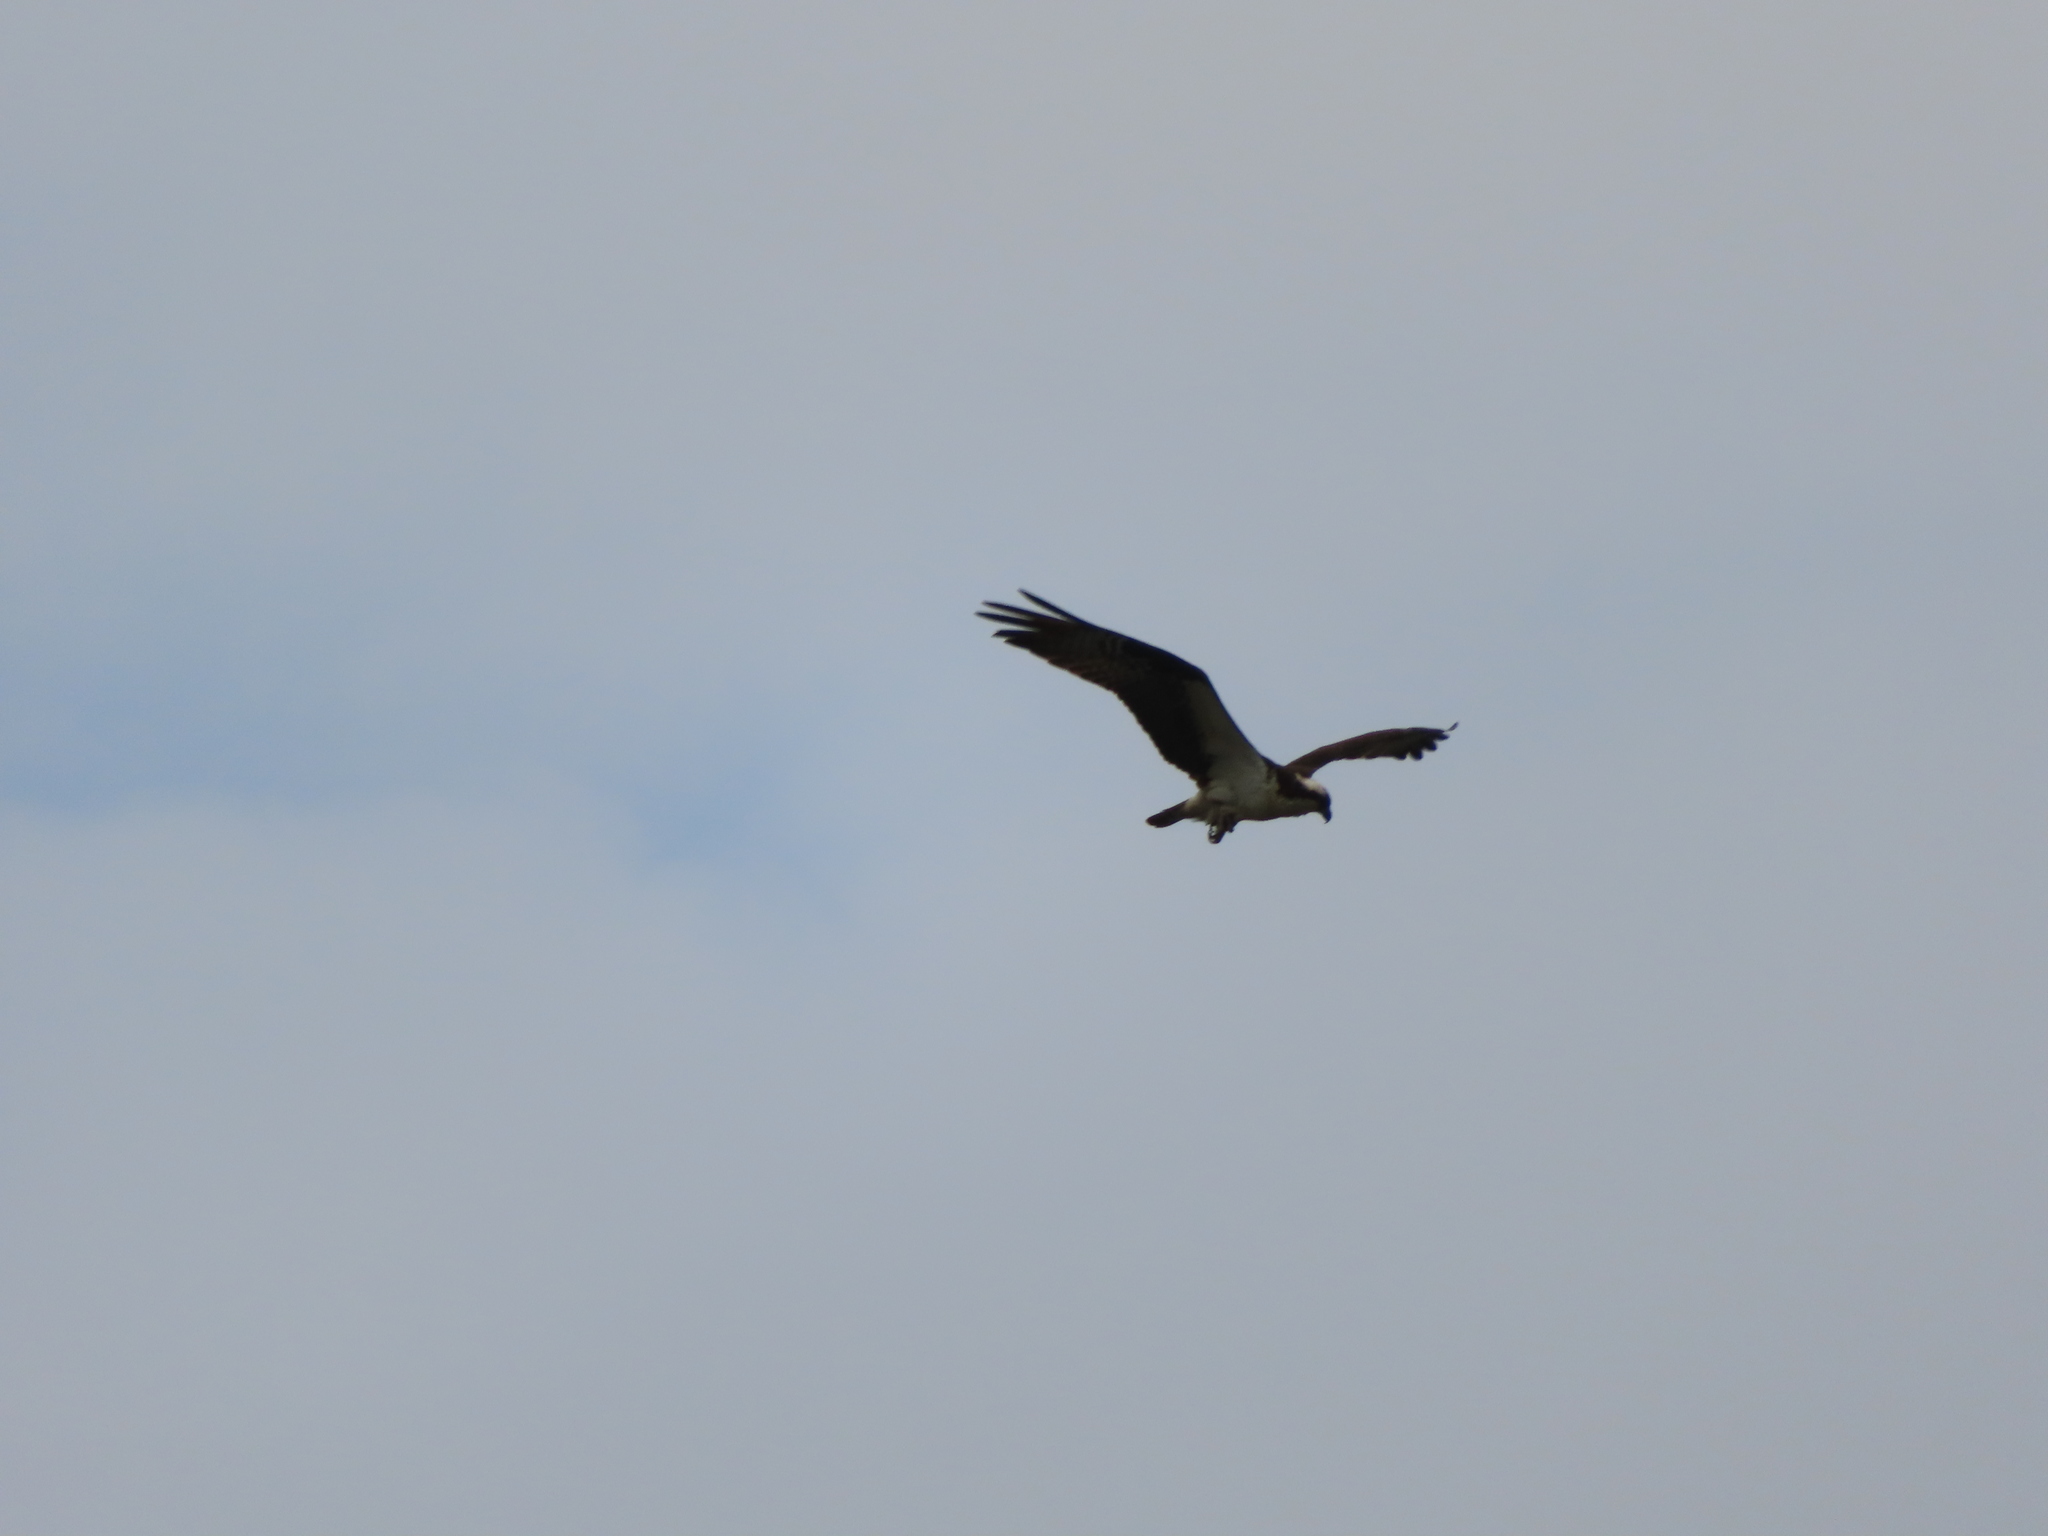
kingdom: Animalia
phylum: Chordata
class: Aves
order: Accipitriformes
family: Pandionidae
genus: Pandion
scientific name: Pandion haliaetus
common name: Osprey
